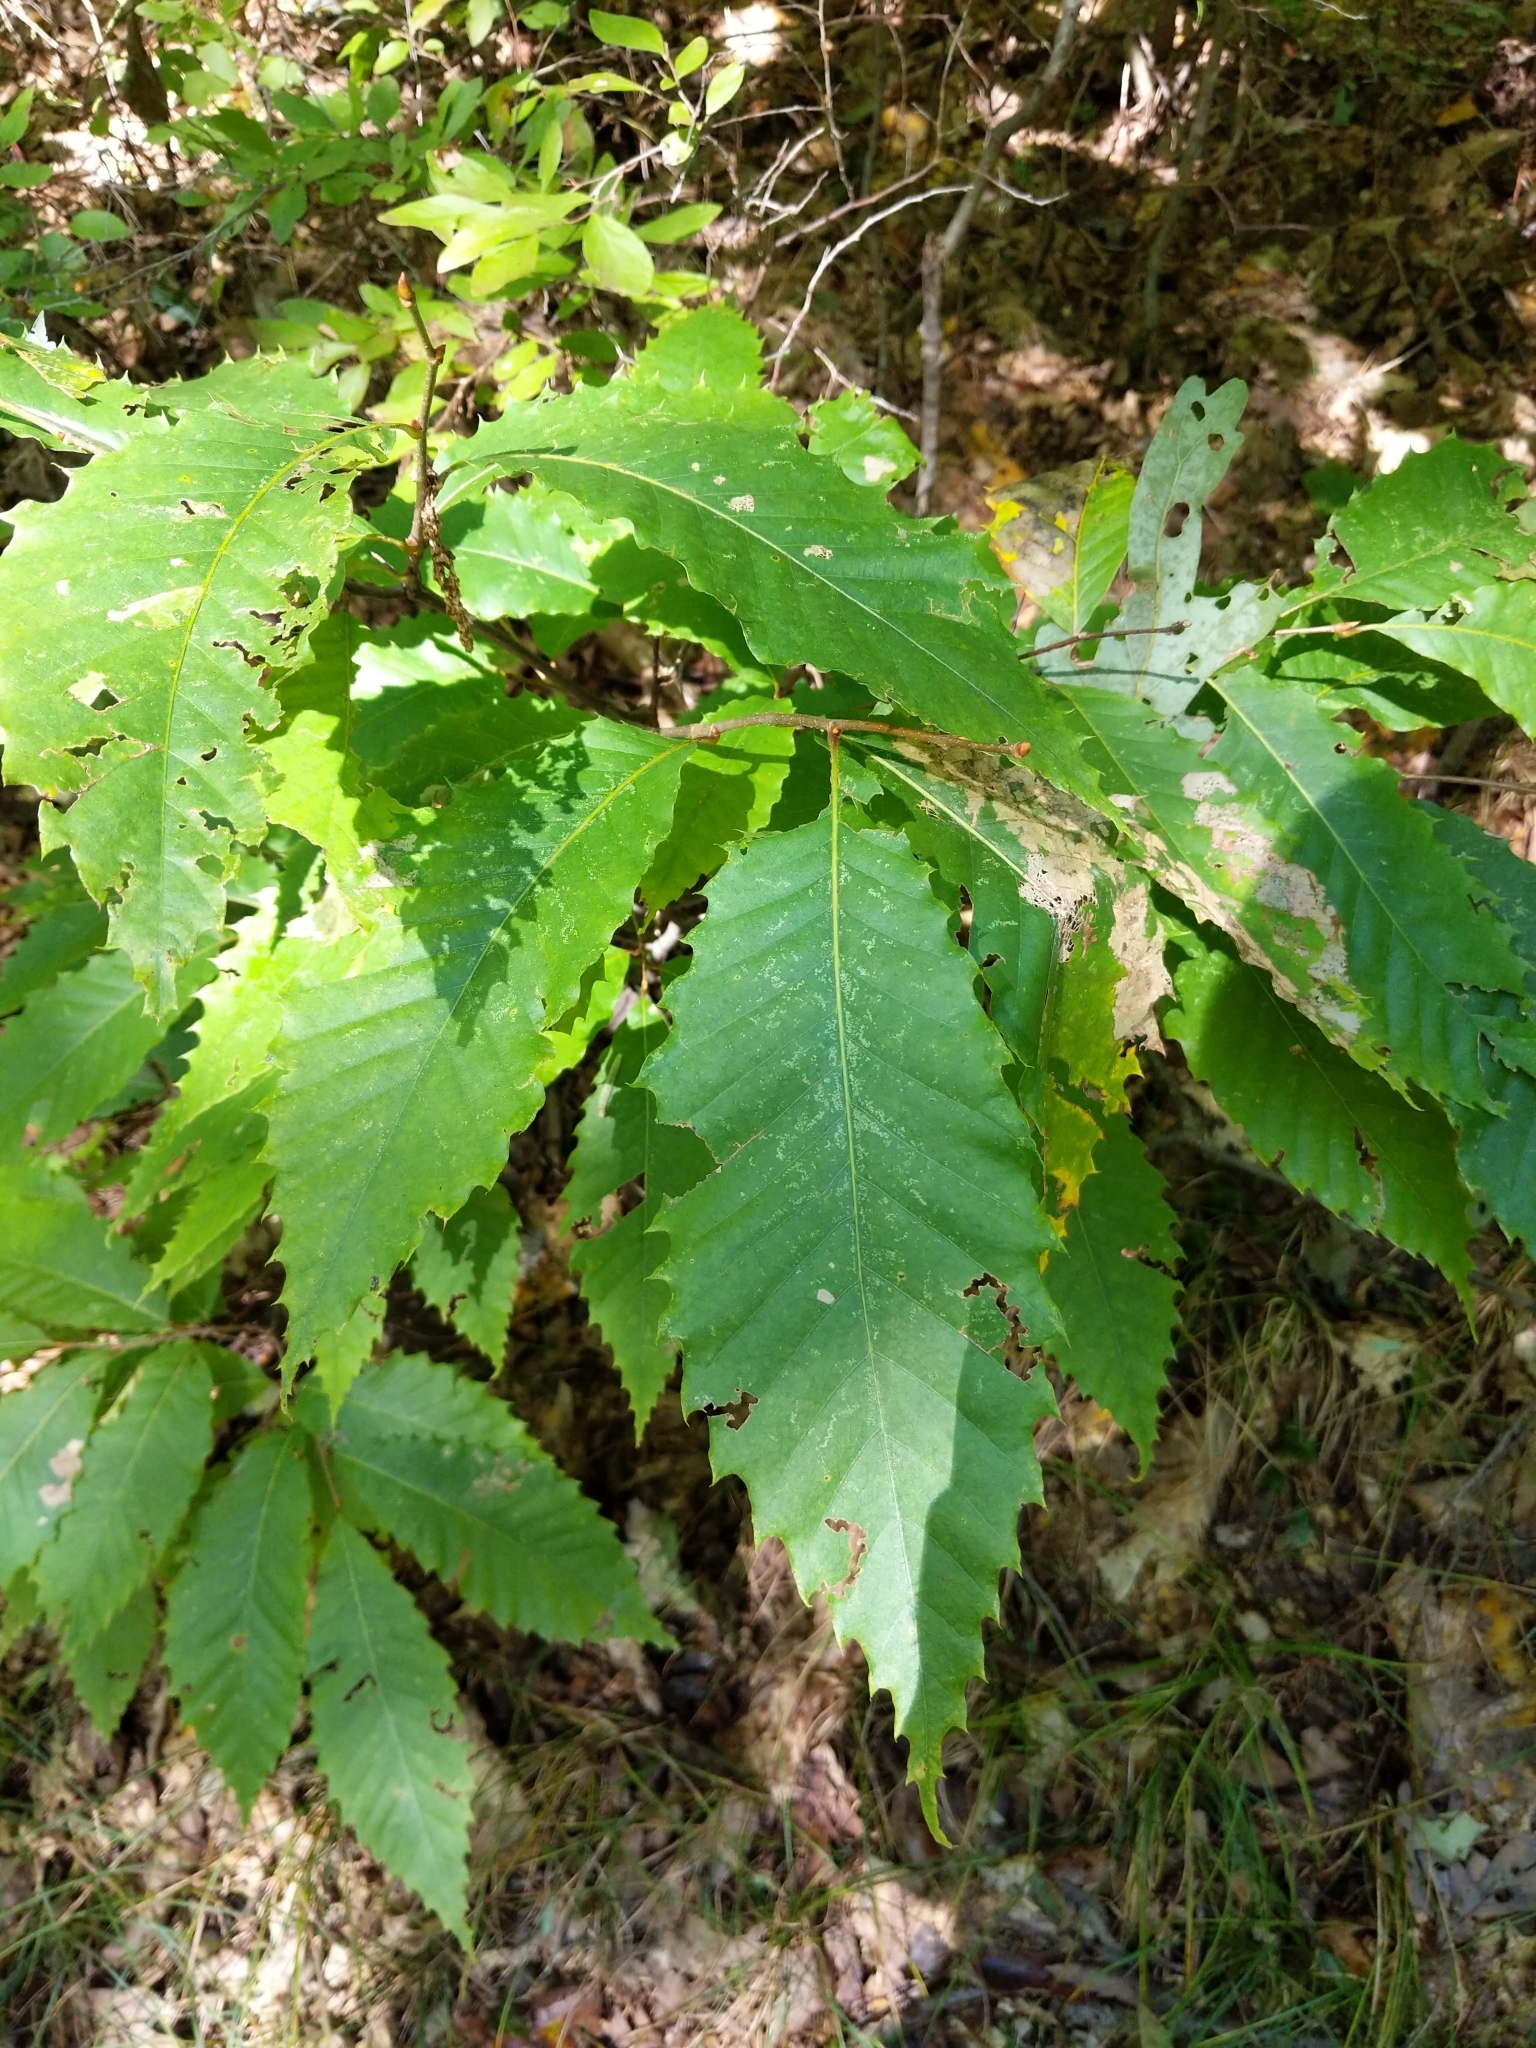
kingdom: Plantae
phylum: Tracheophyta
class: Magnoliopsida
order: Fagales
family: Fagaceae
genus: Castanea
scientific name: Castanea dentata
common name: American chestnut
